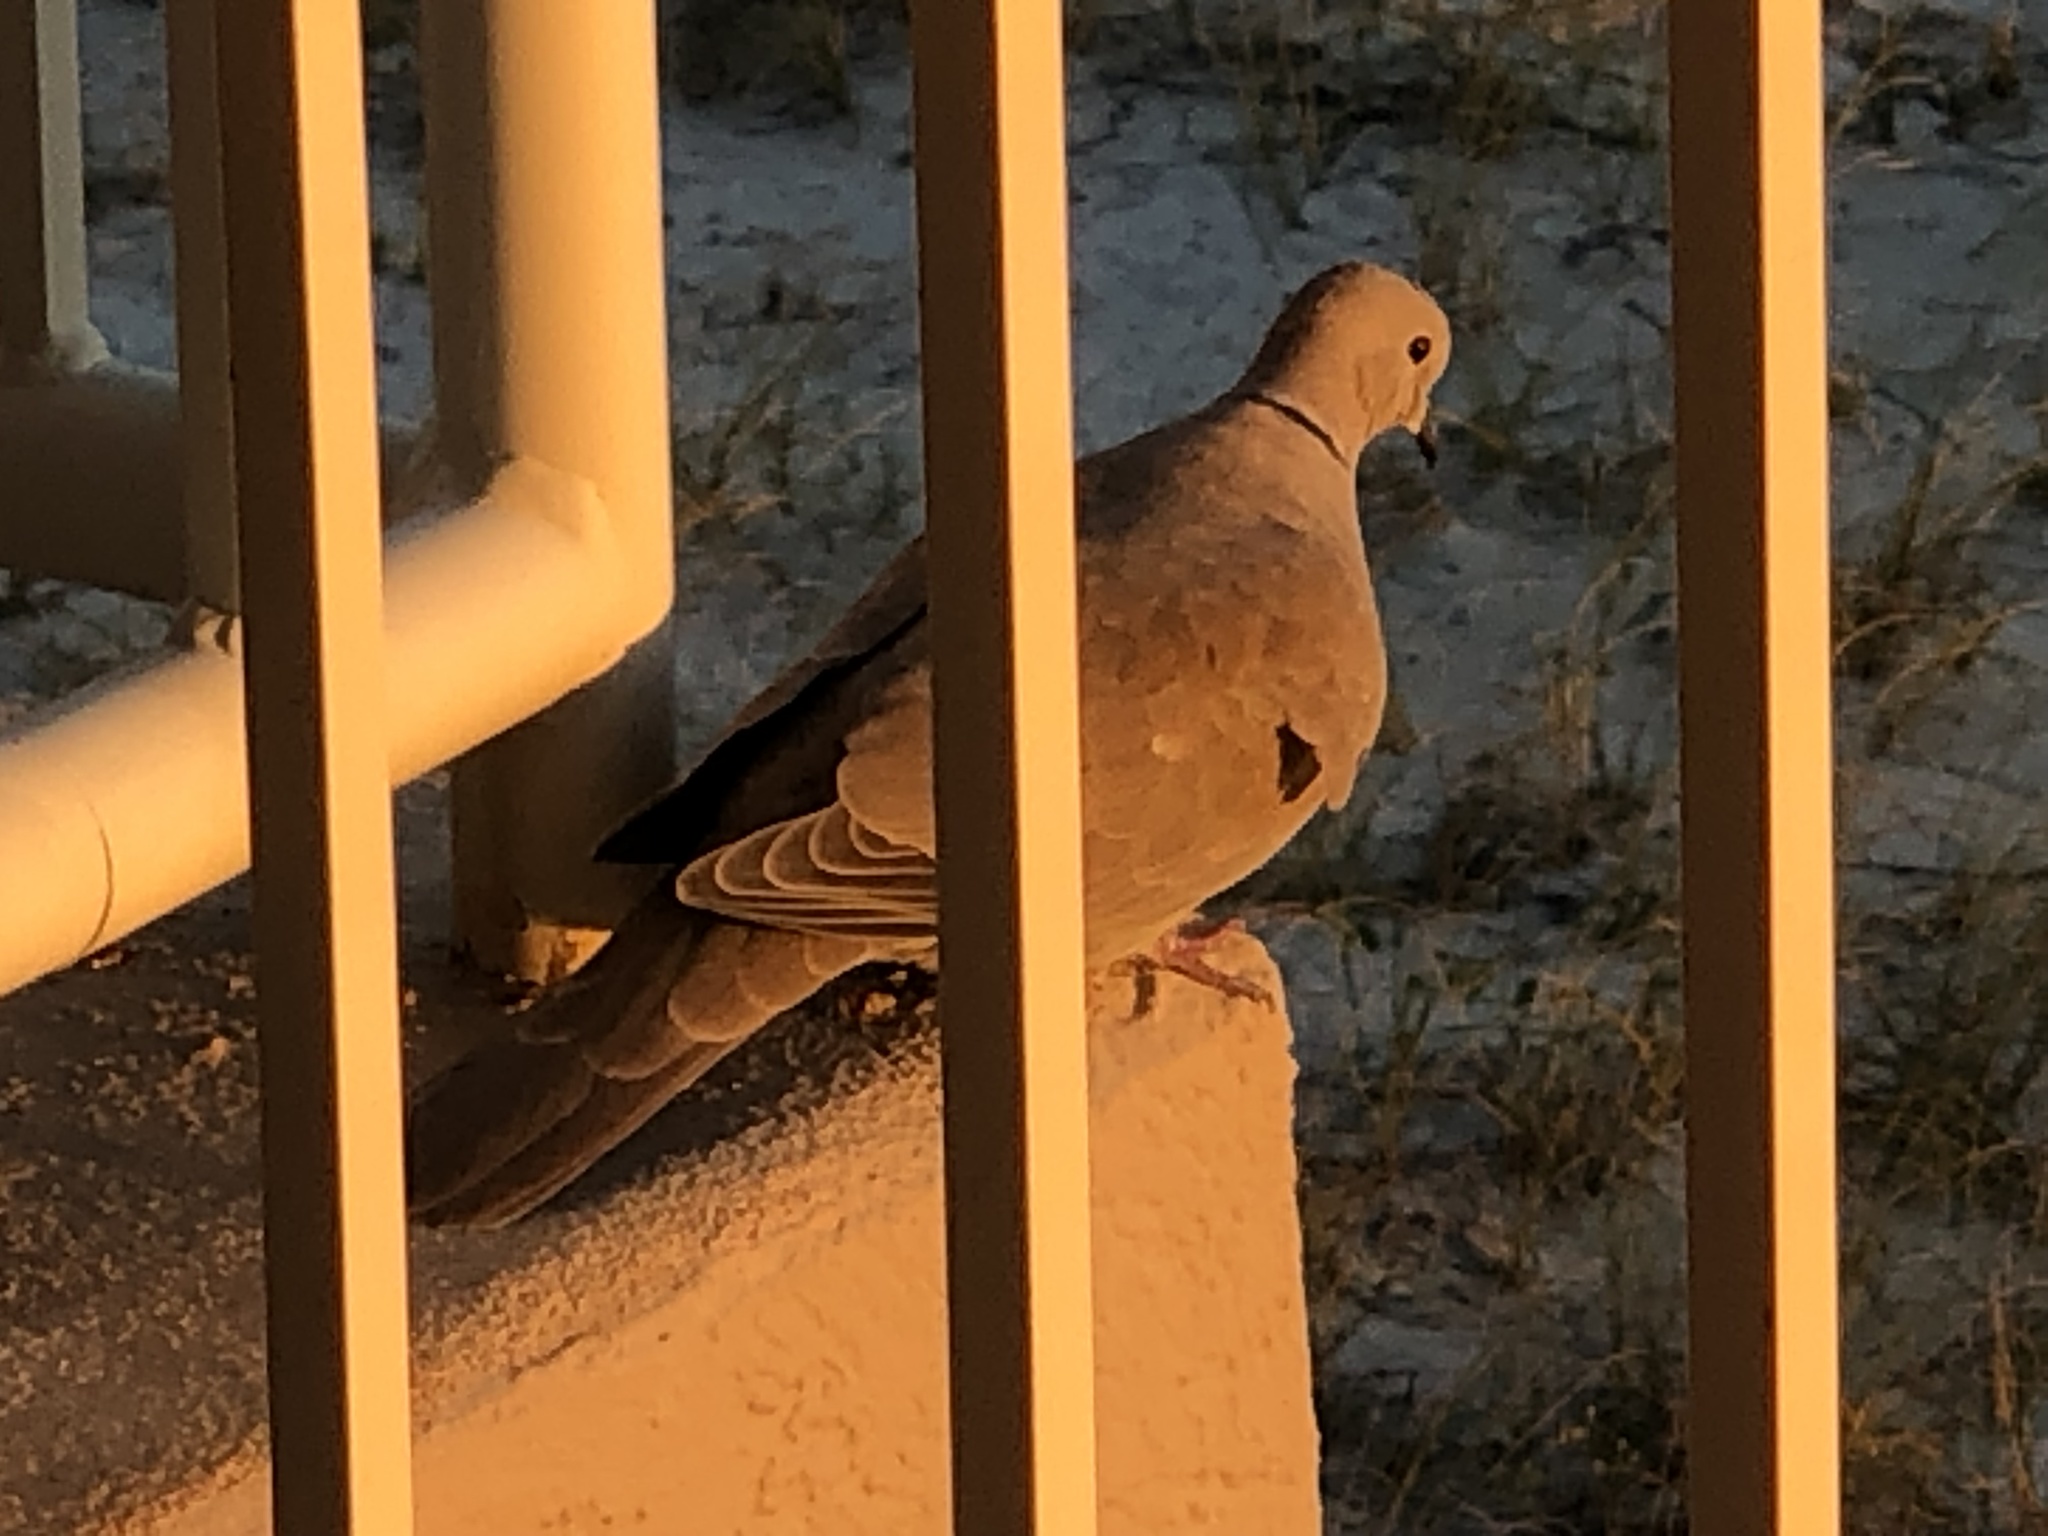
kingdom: Animalia
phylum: Chordata
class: Aves
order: Columbiformes
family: Columbidae
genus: Streptopelia
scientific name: Streptopelia decaocto
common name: Eurasian collared dove
